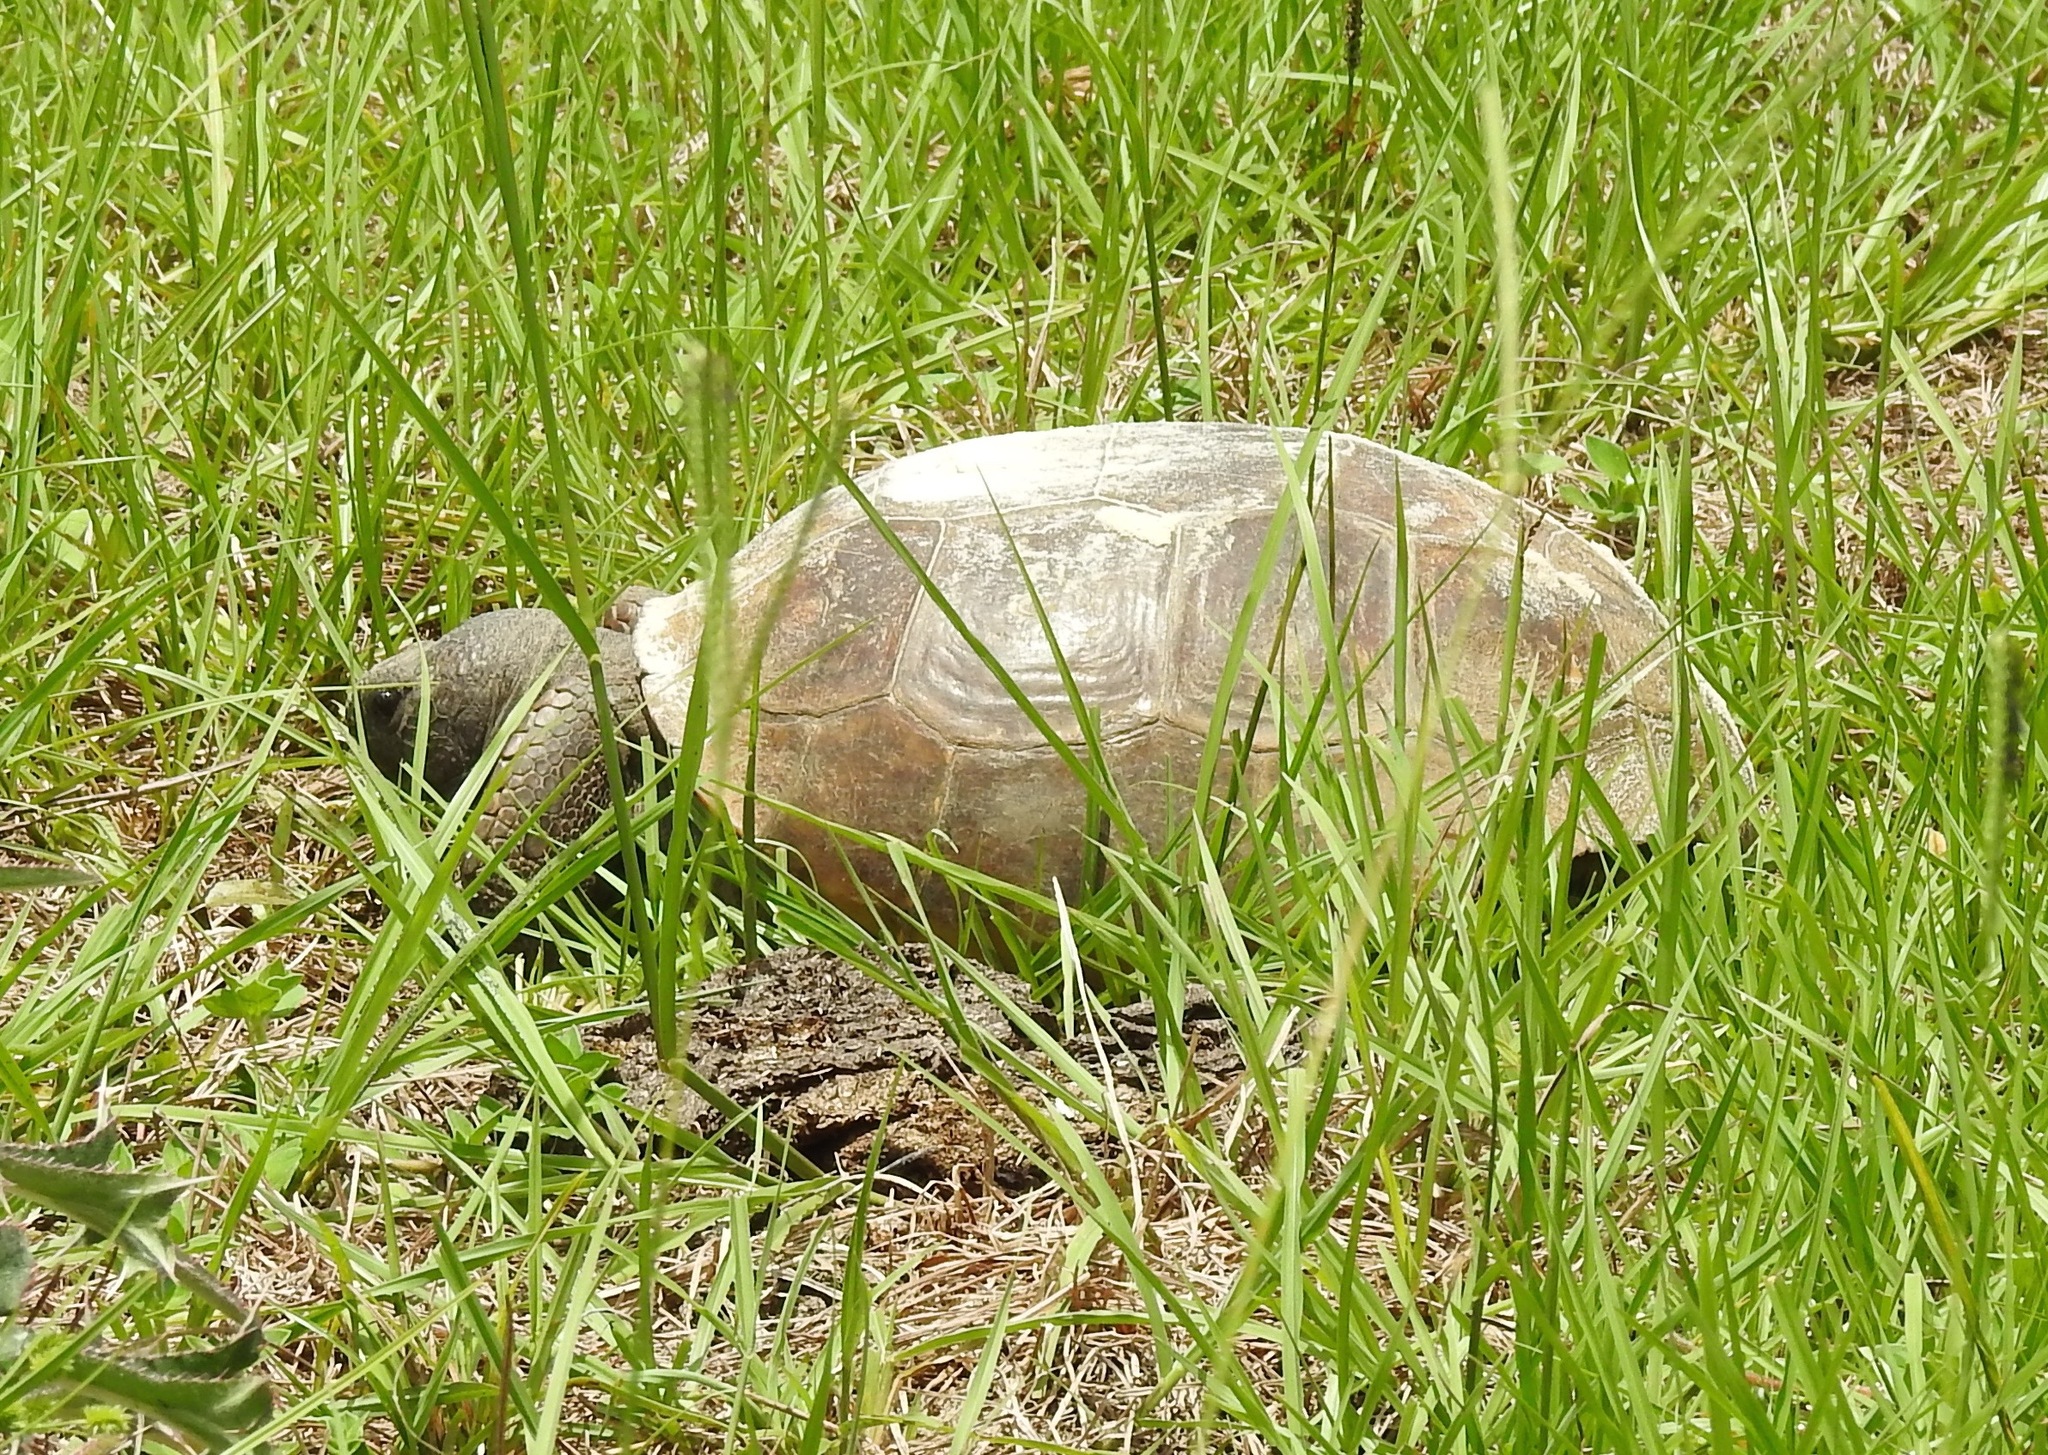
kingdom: Animalia
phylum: Chordata
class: Testudines
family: Testudinidae
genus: Gopherus
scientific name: Gopherus polyphemus
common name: Florida gopher tortoise
